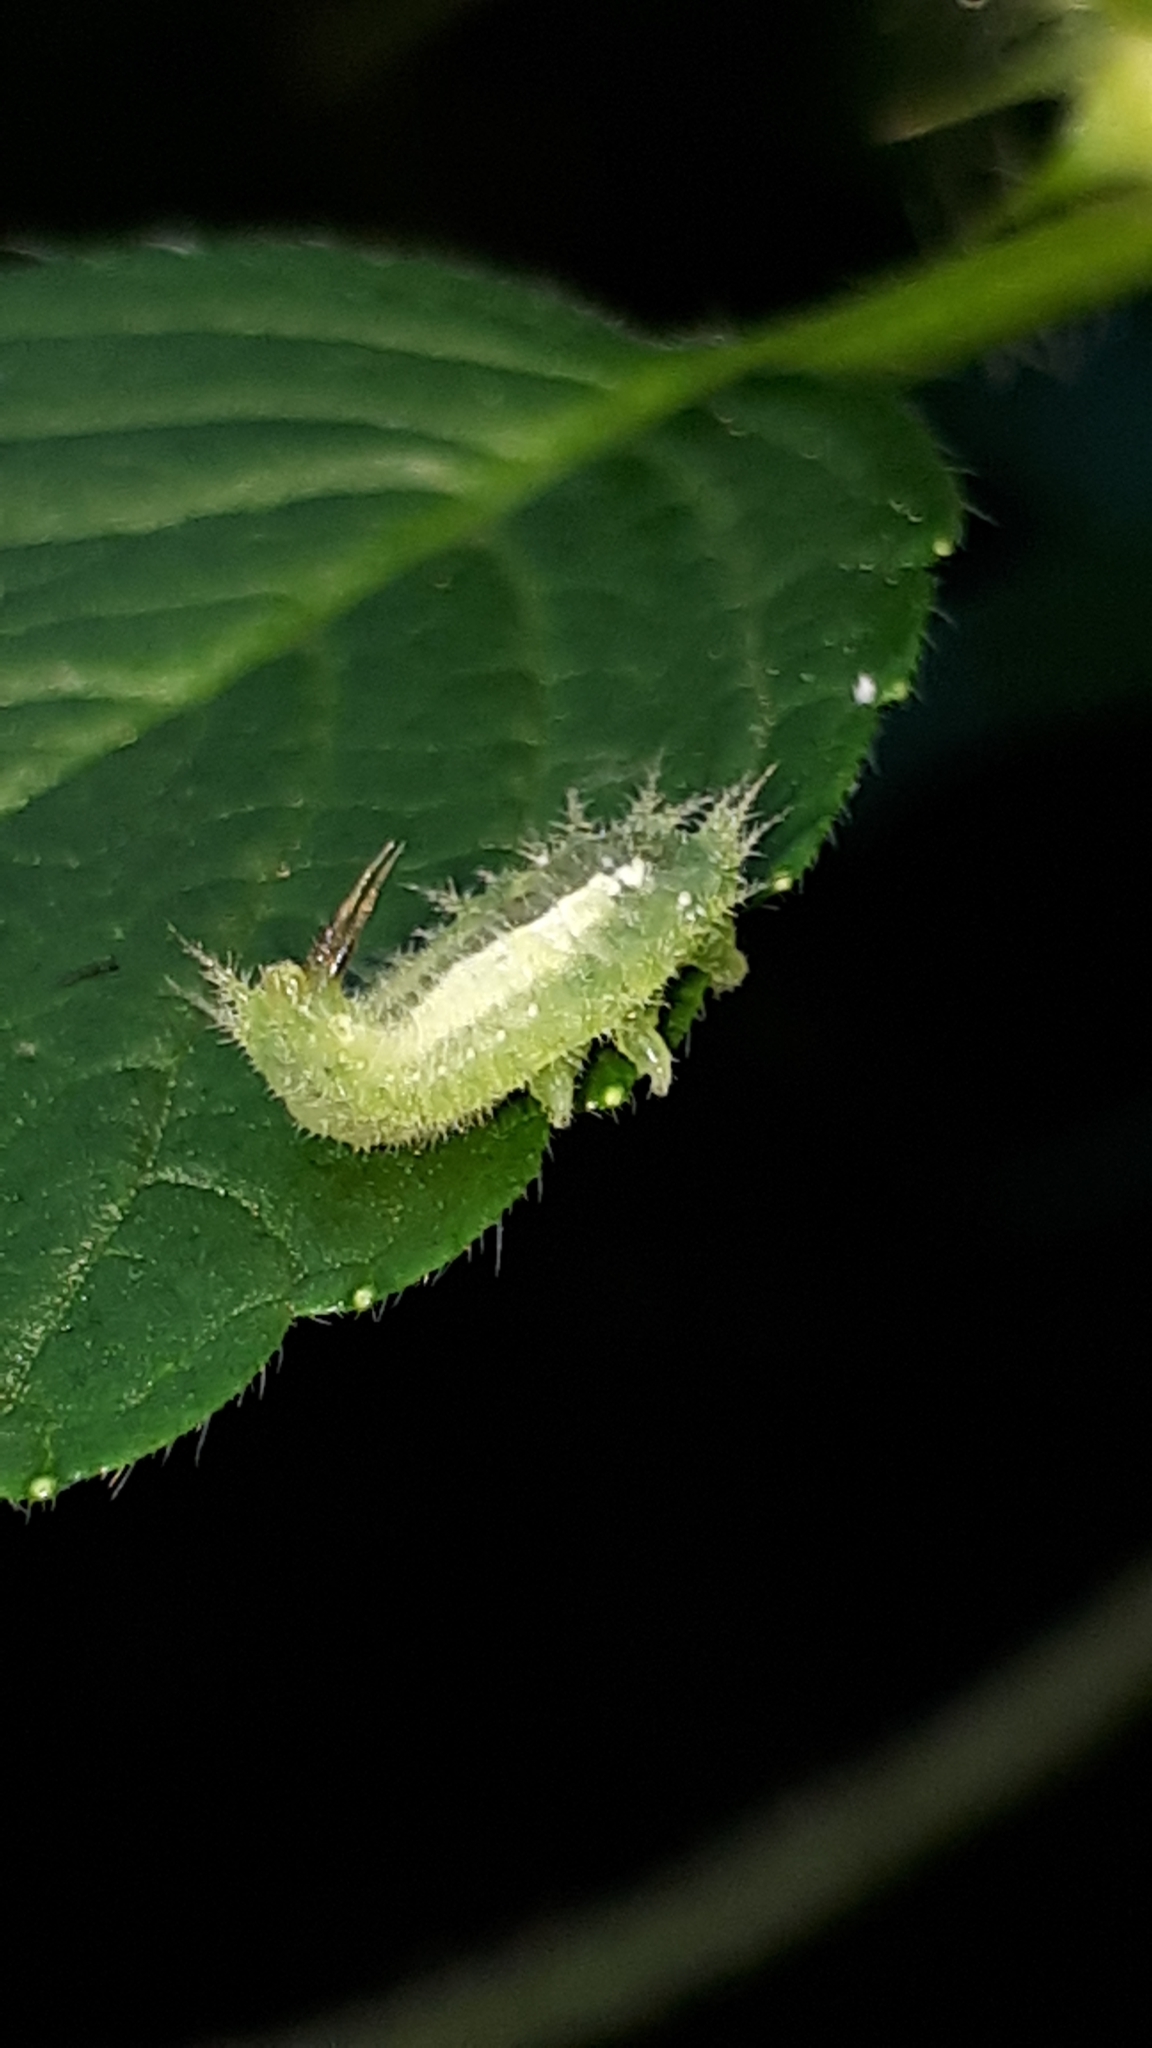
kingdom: Animalia
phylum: Arthropoda
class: Insecta
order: Coleoptera
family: Chrysomelidae
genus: Cassida
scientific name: Cassida viridis
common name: Green tortoise beetle
